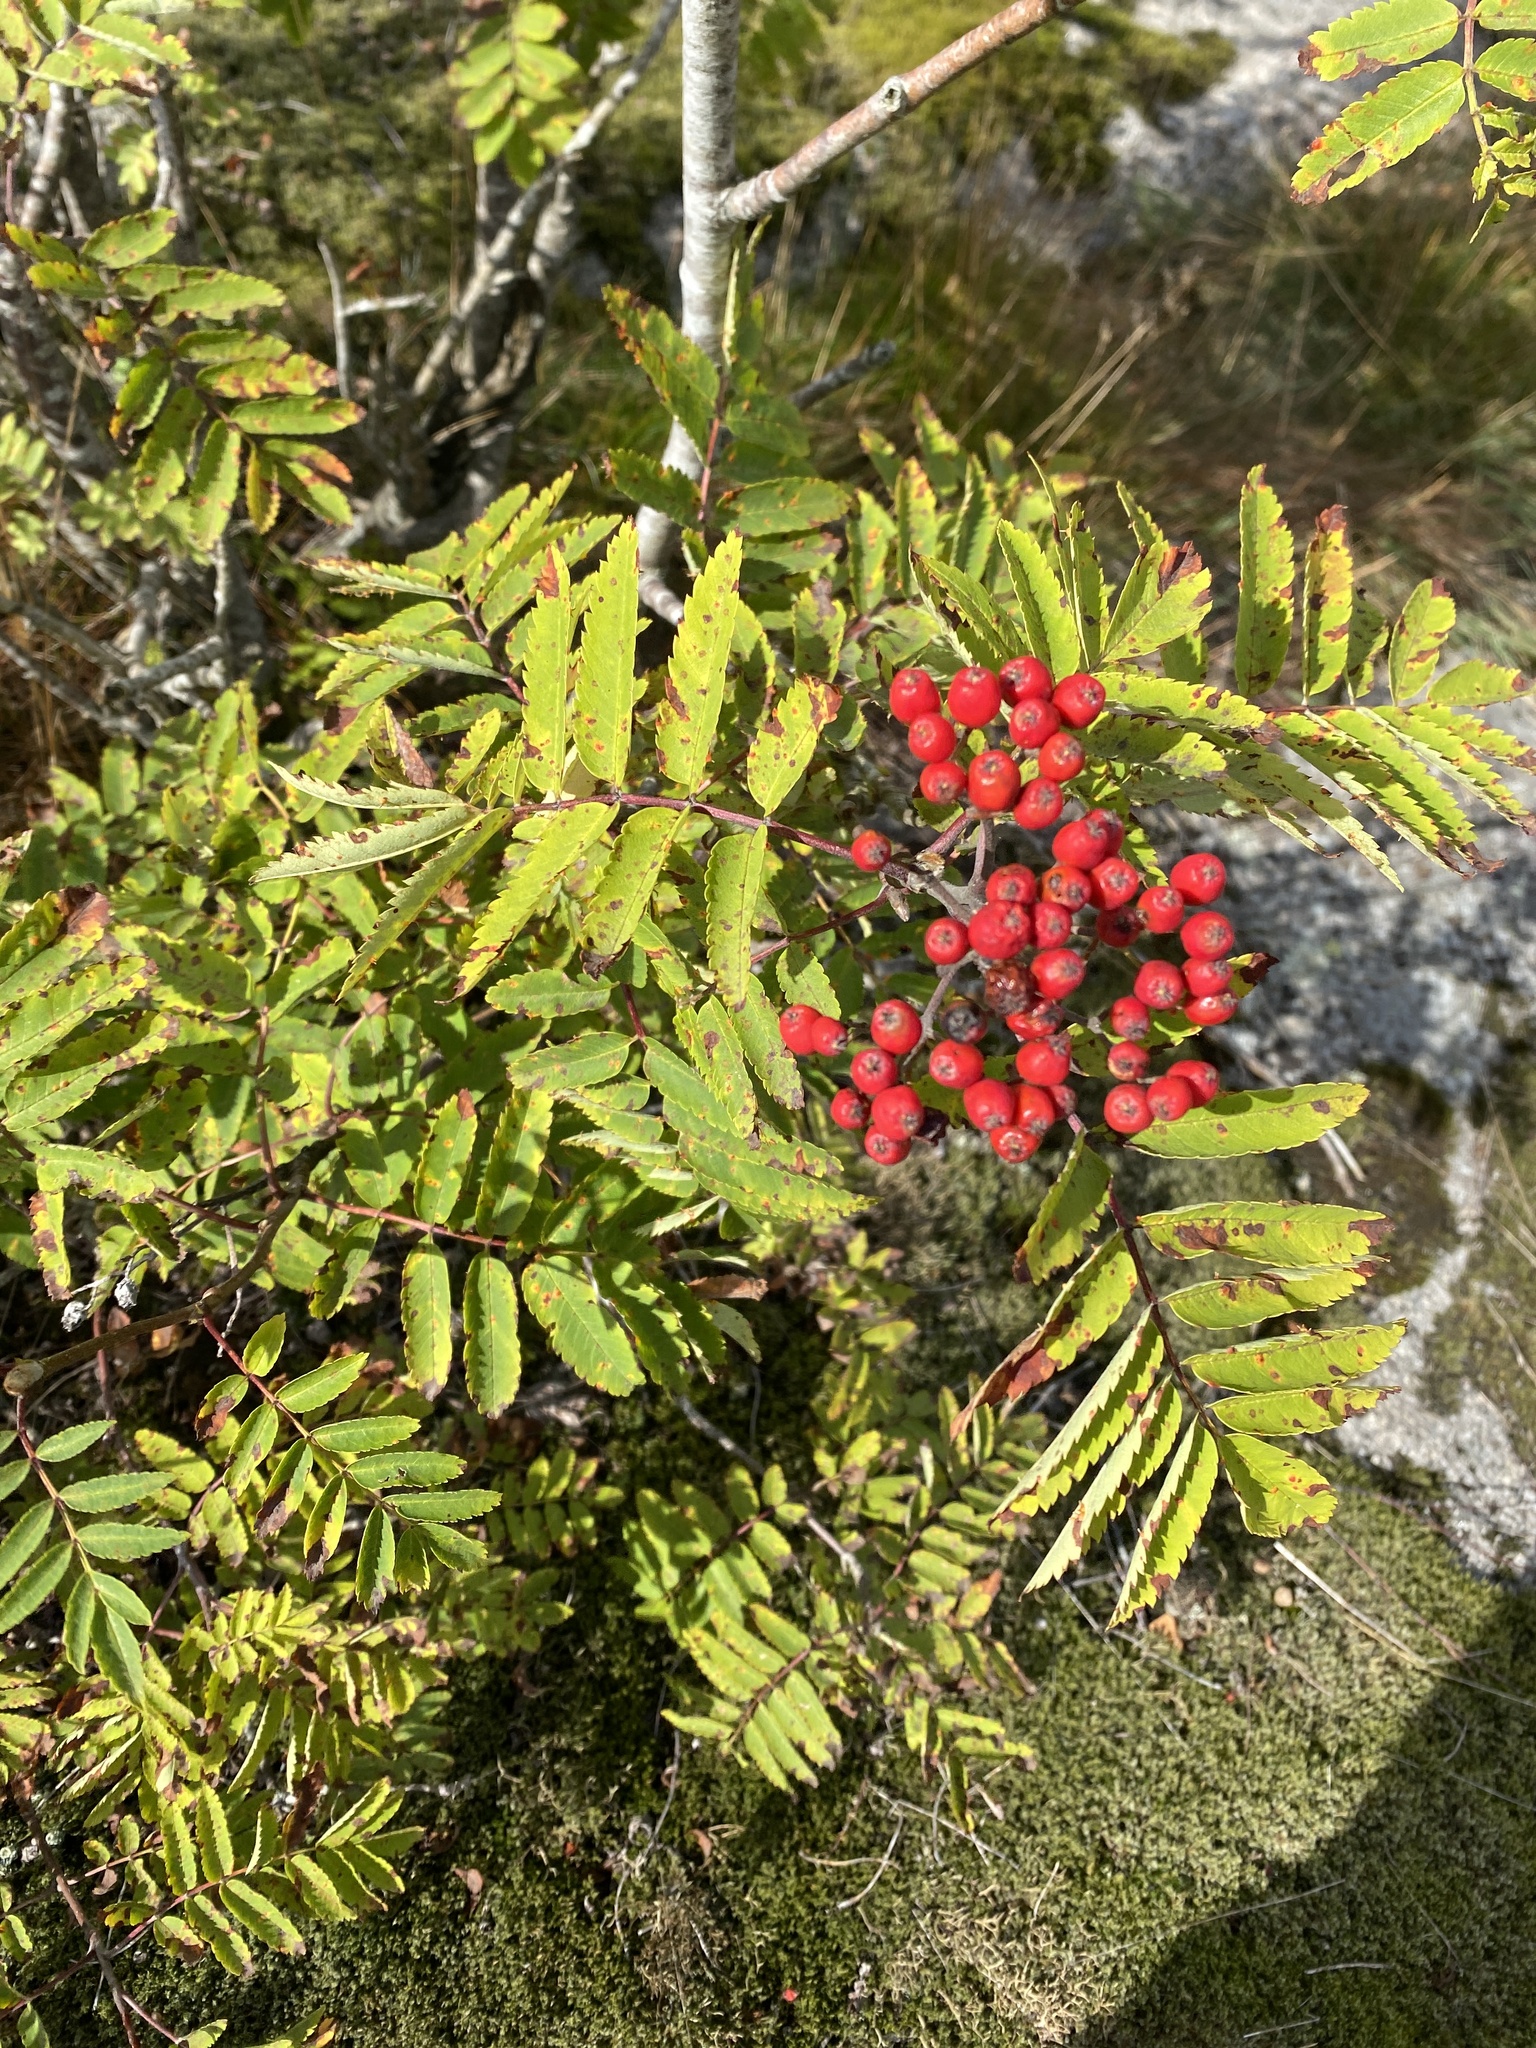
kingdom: Plantae
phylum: Tracheophyta
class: Magnoliopsida
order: Rosales
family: Rosaceae
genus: Sorbus
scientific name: Sorbus aucuparia
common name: Rowan
